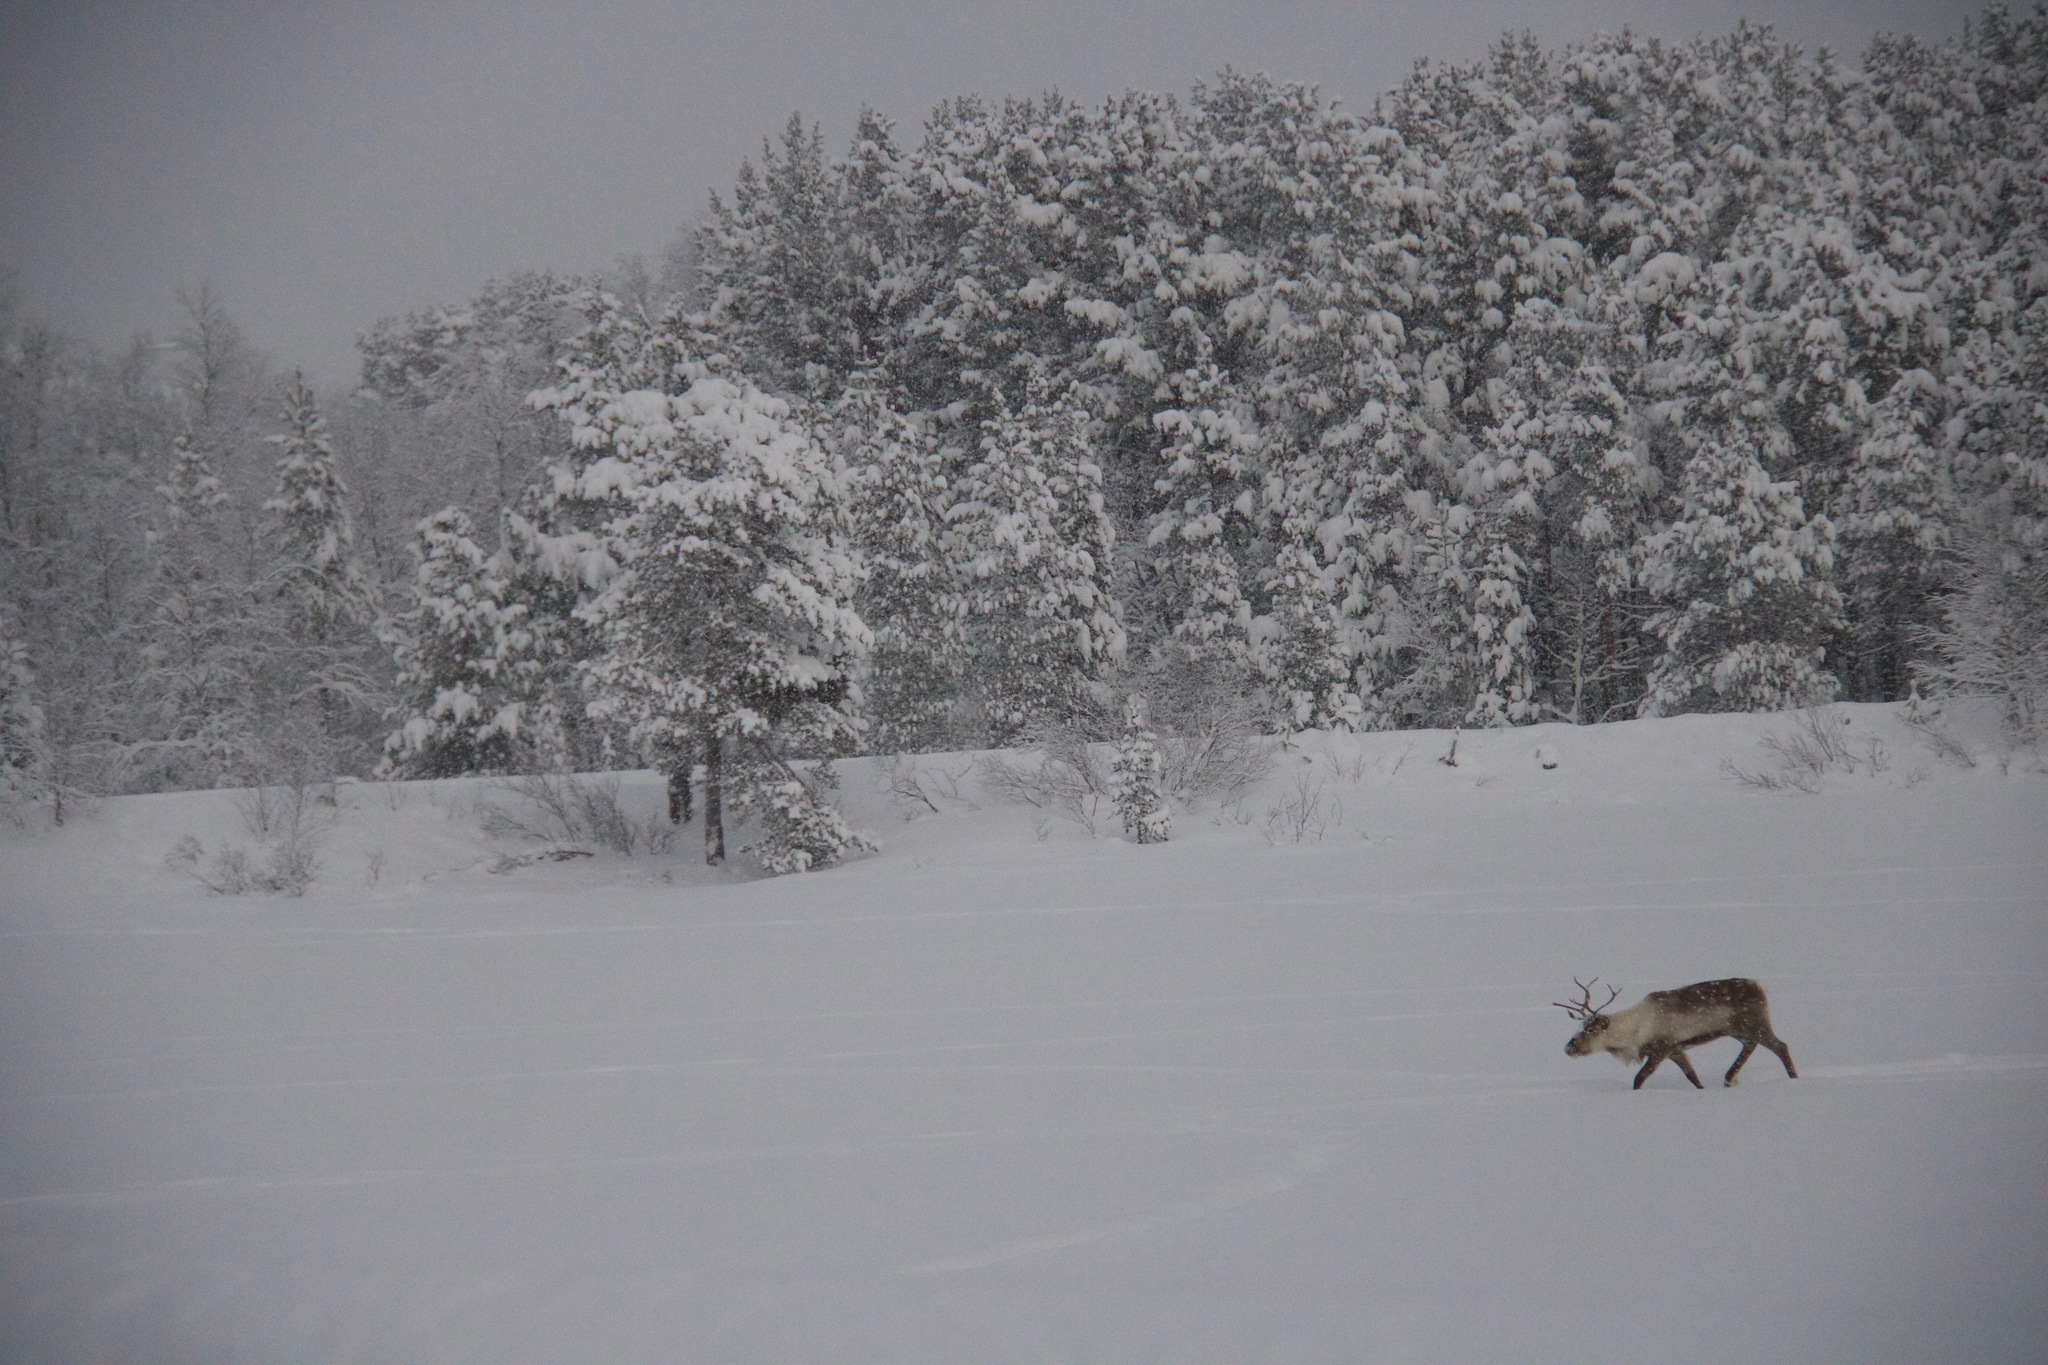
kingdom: Animalia
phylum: Chordata
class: Mammalia
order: Artiodactyla
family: Cervidae
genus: Rangifer
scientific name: Rangifer tarandus
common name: Reindeer
